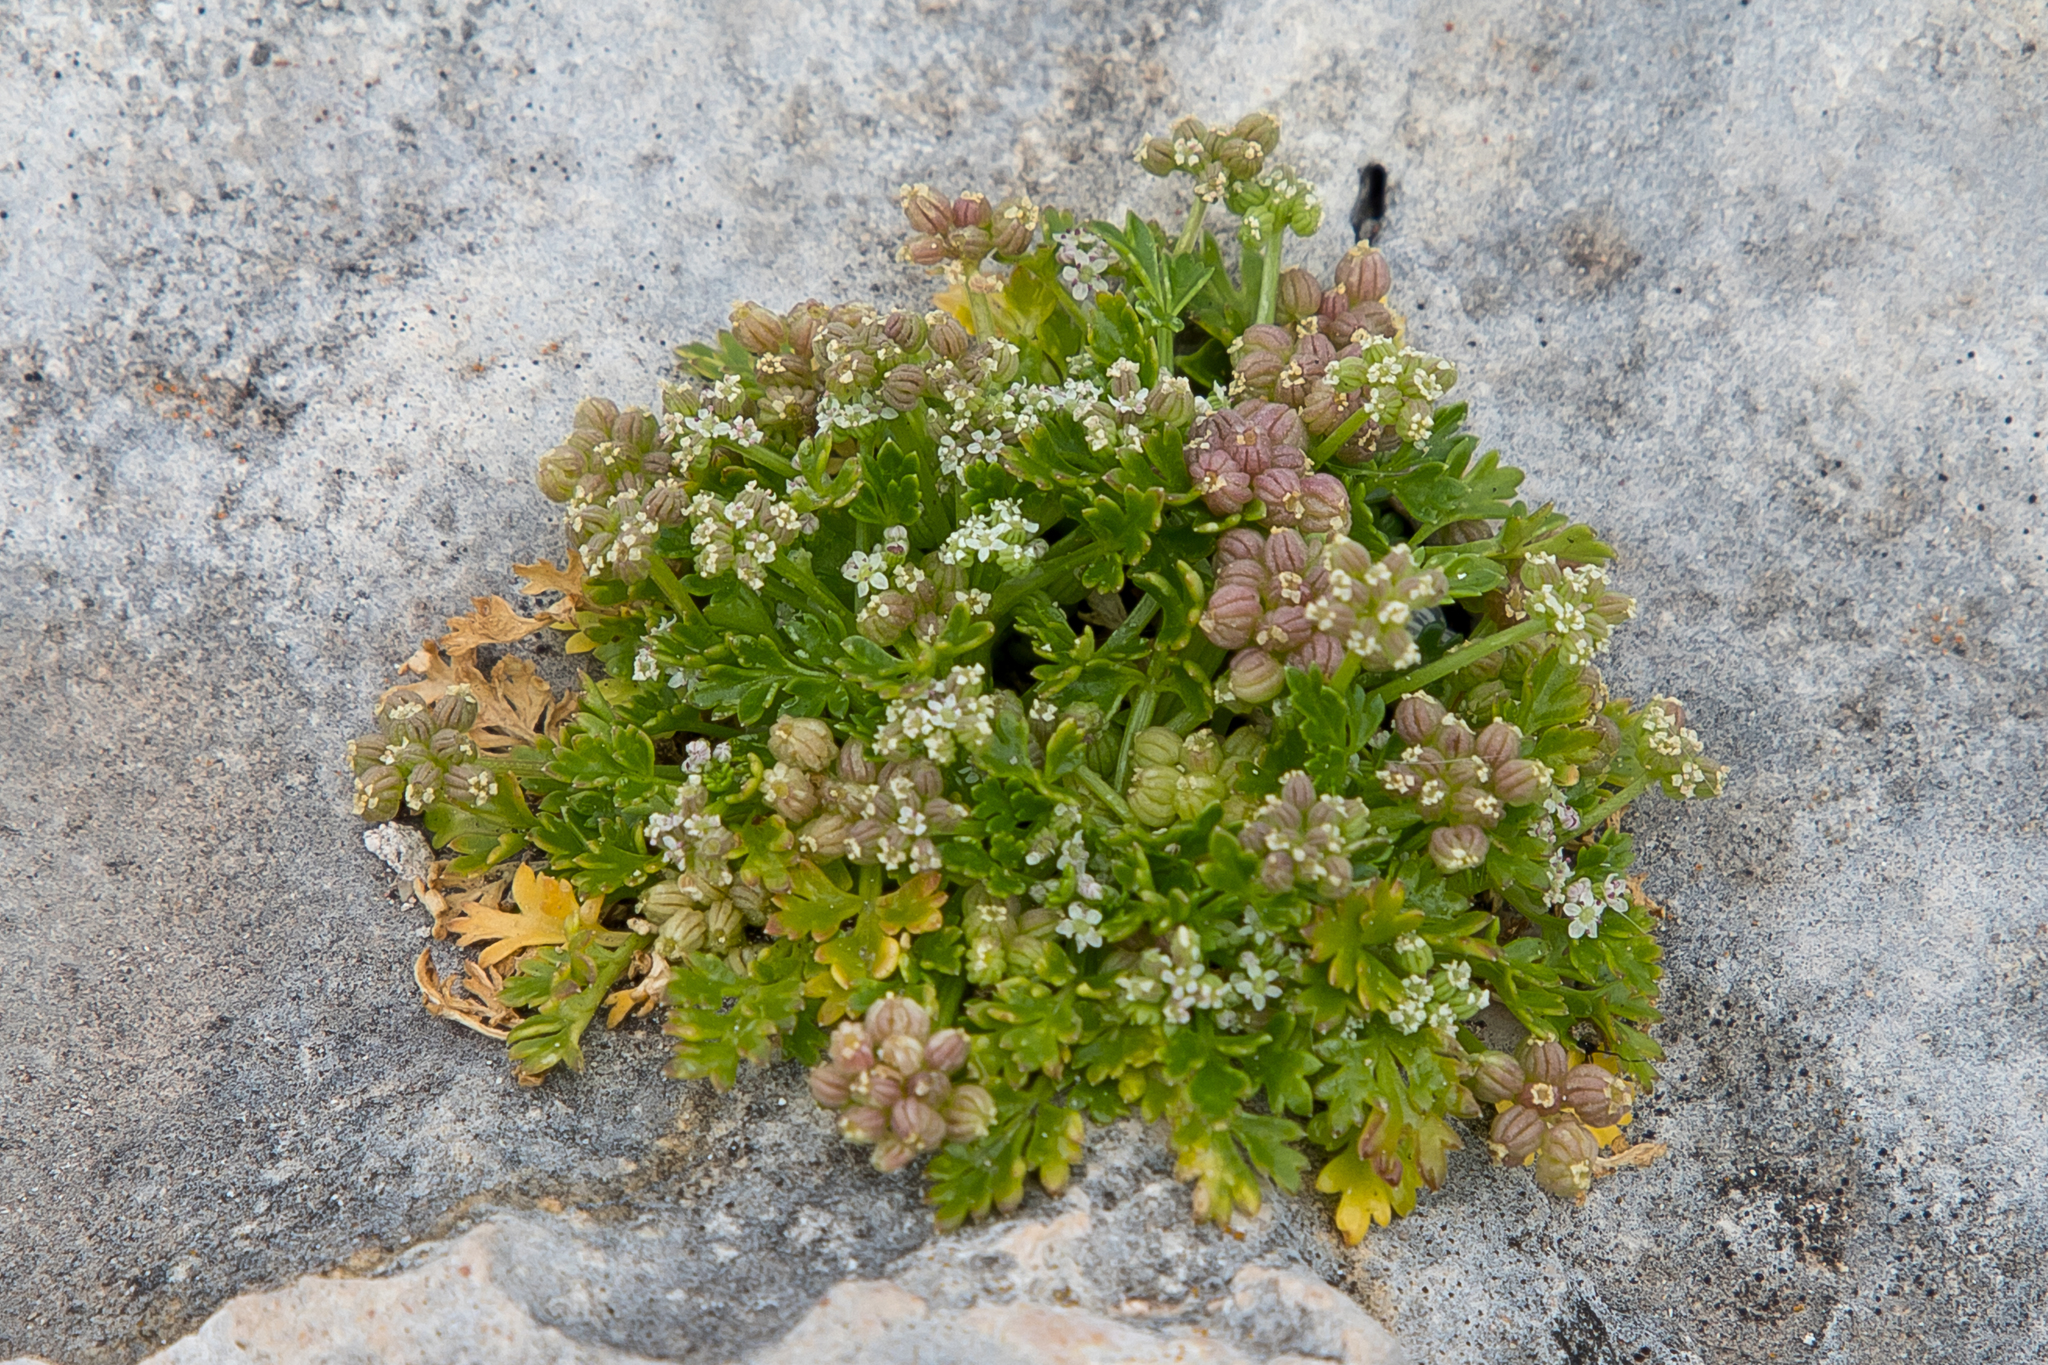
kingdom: Plantae
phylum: Tracheophyta
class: Magnoliopsida
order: Apiales
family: Apiaceae
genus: Apium
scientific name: Apium prostratum
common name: Prostrate marshwort
